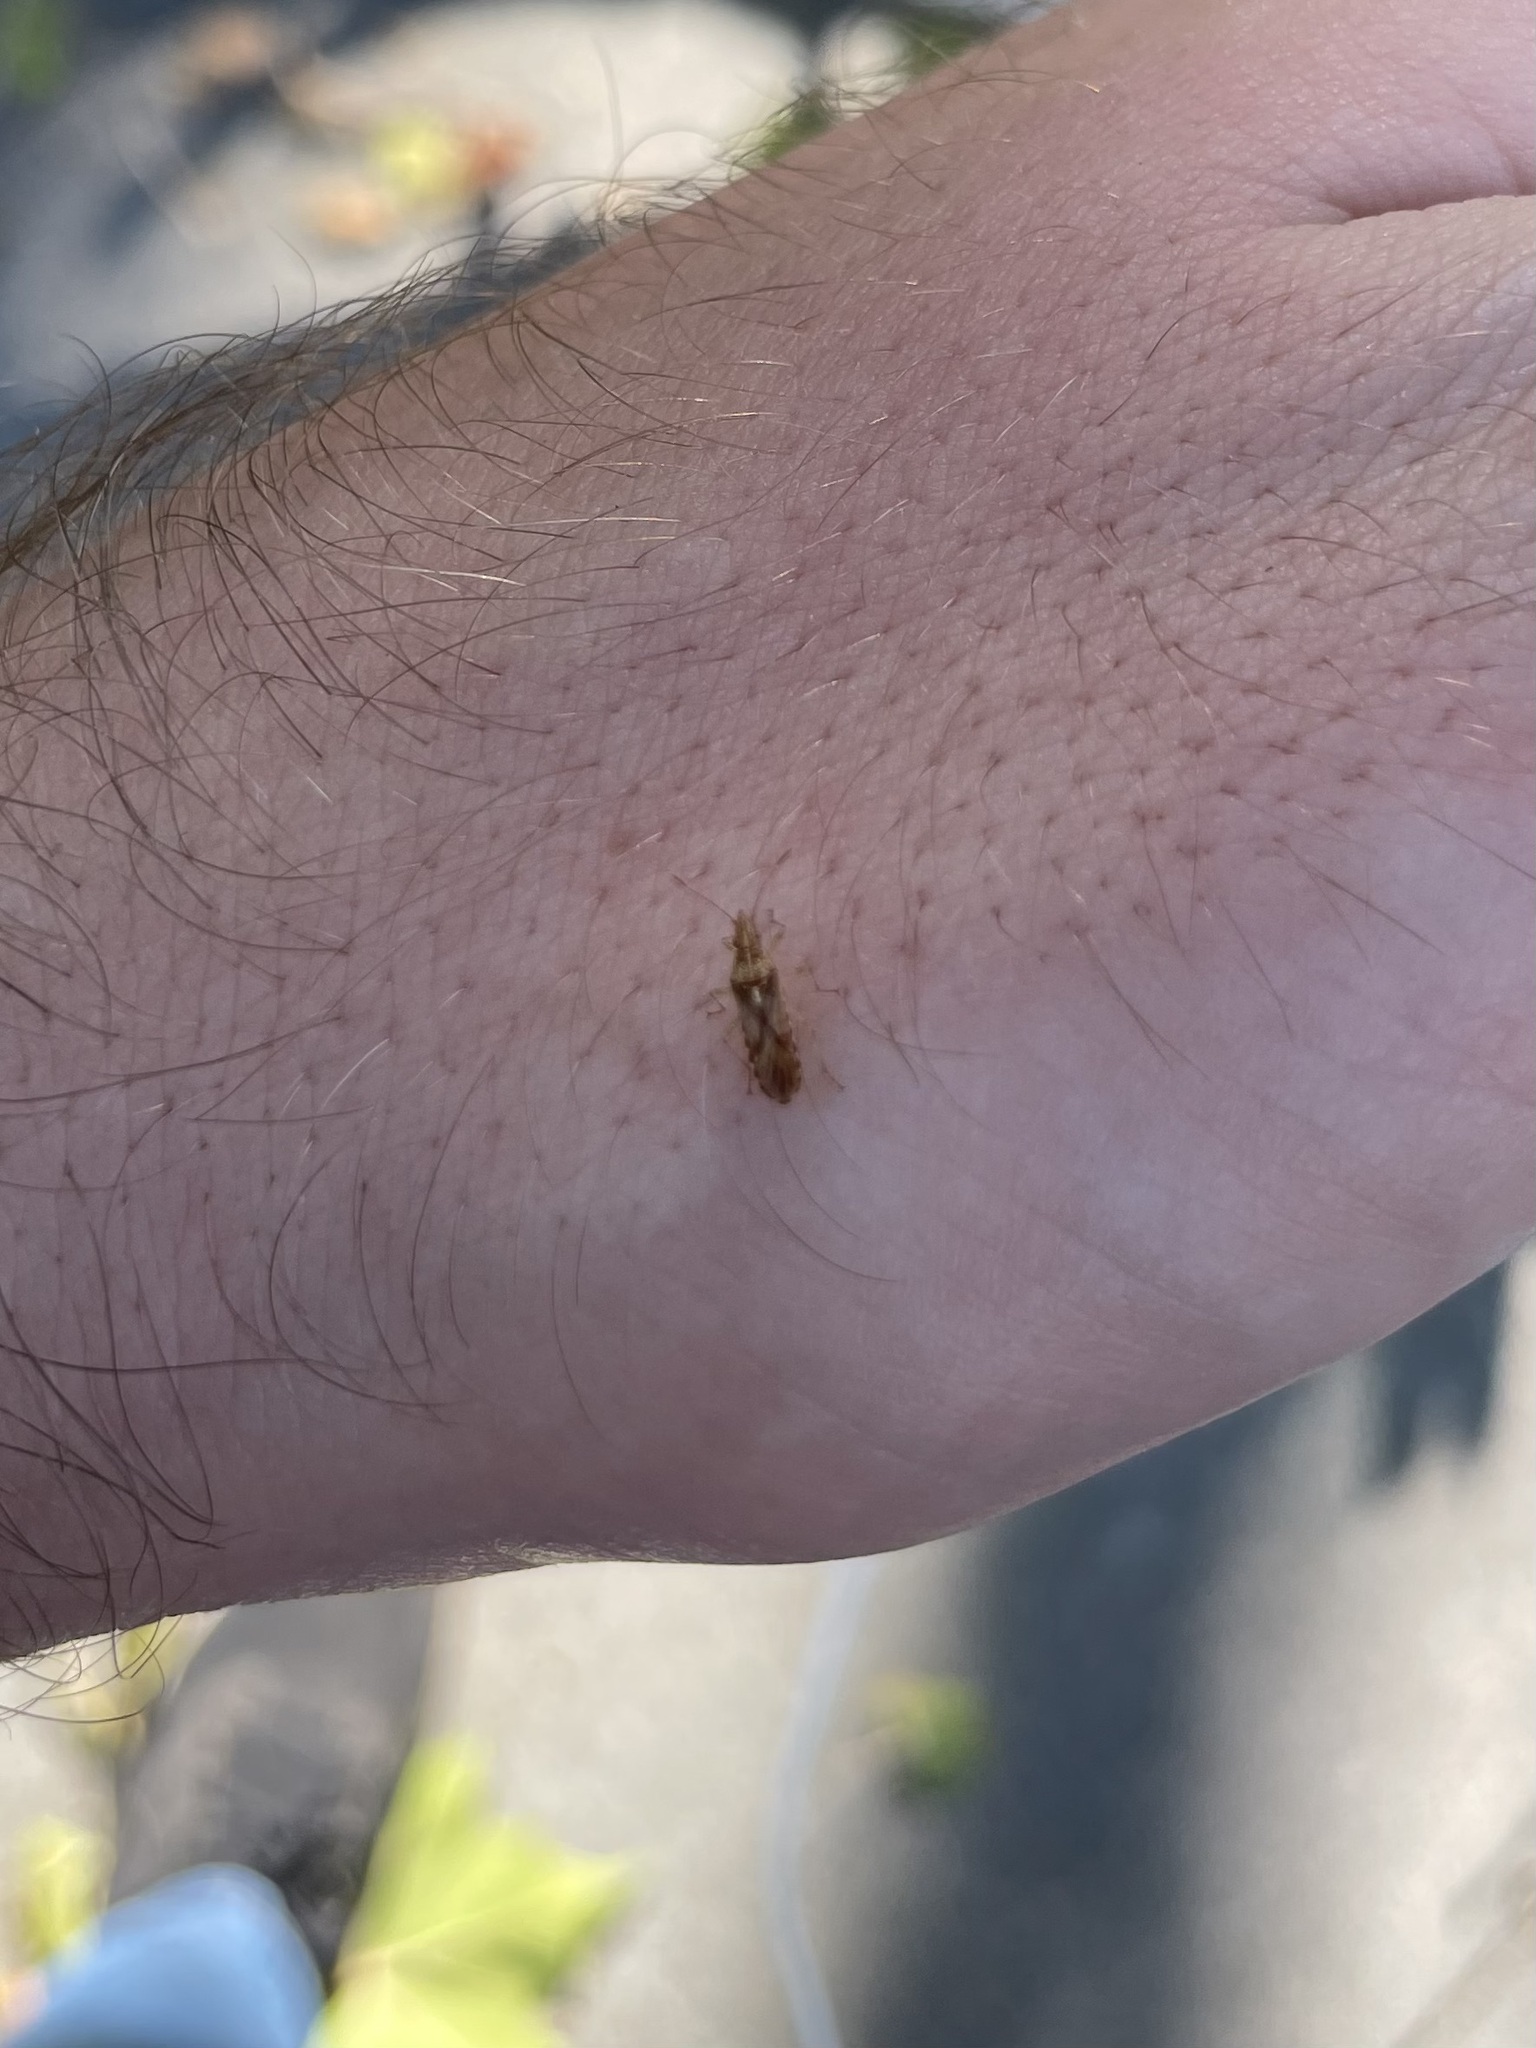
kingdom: Animalia
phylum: Arthropoda
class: Insecta
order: Hemiptera
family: Lygaeidae
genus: Belonochilus
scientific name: Belonochilus numenius
